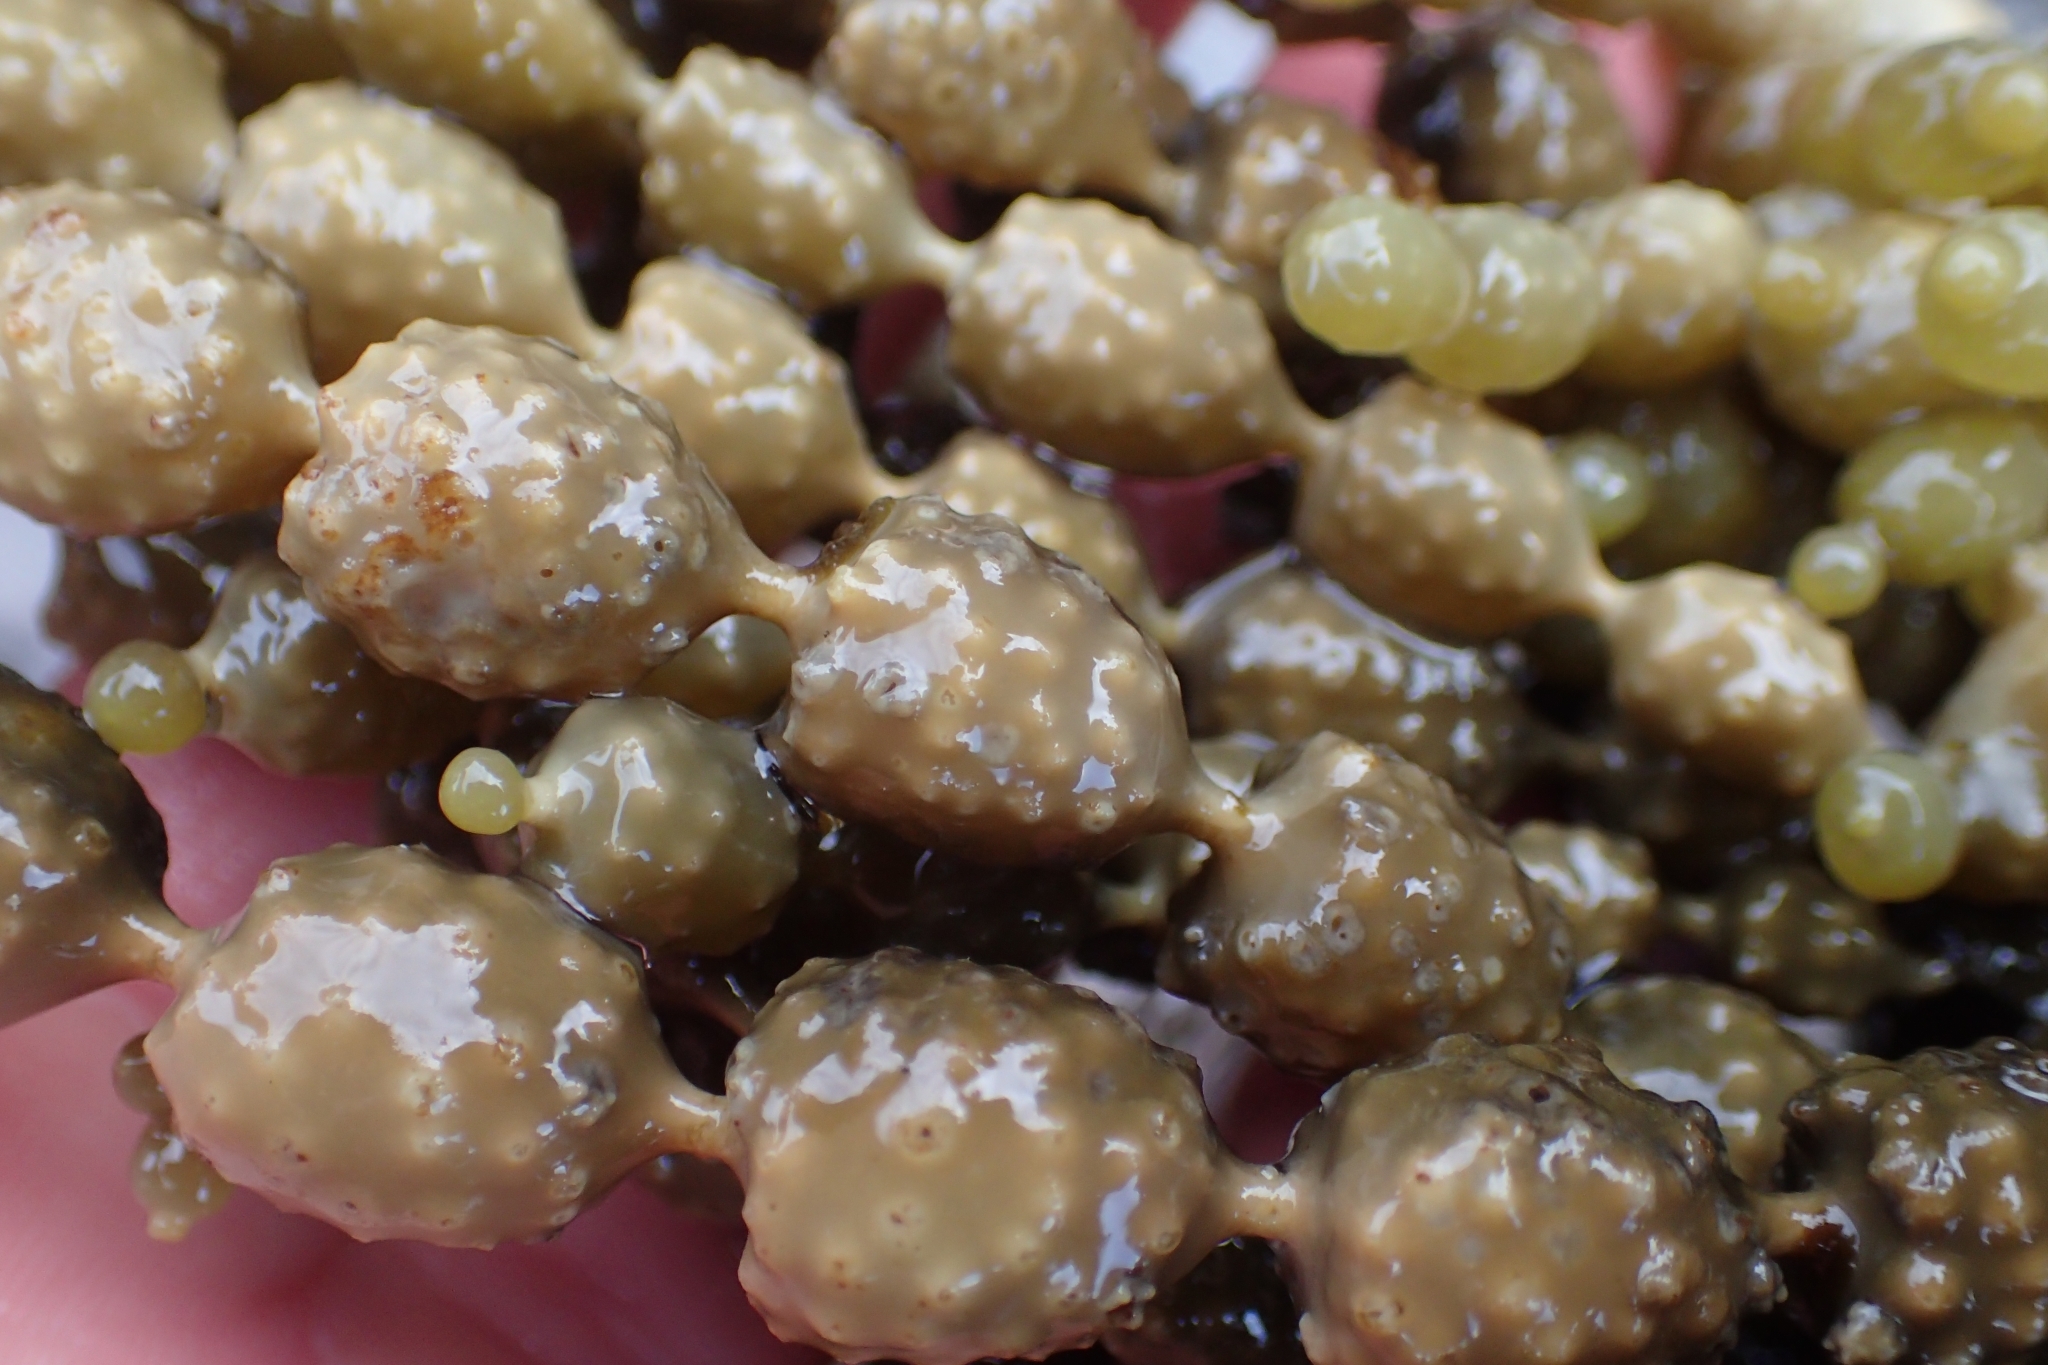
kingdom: Chromista
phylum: Ochrophyta
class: Phaeophyceae
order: Fucales
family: Hormosiraceae
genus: Hormosira
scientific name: Hormosira banksii
